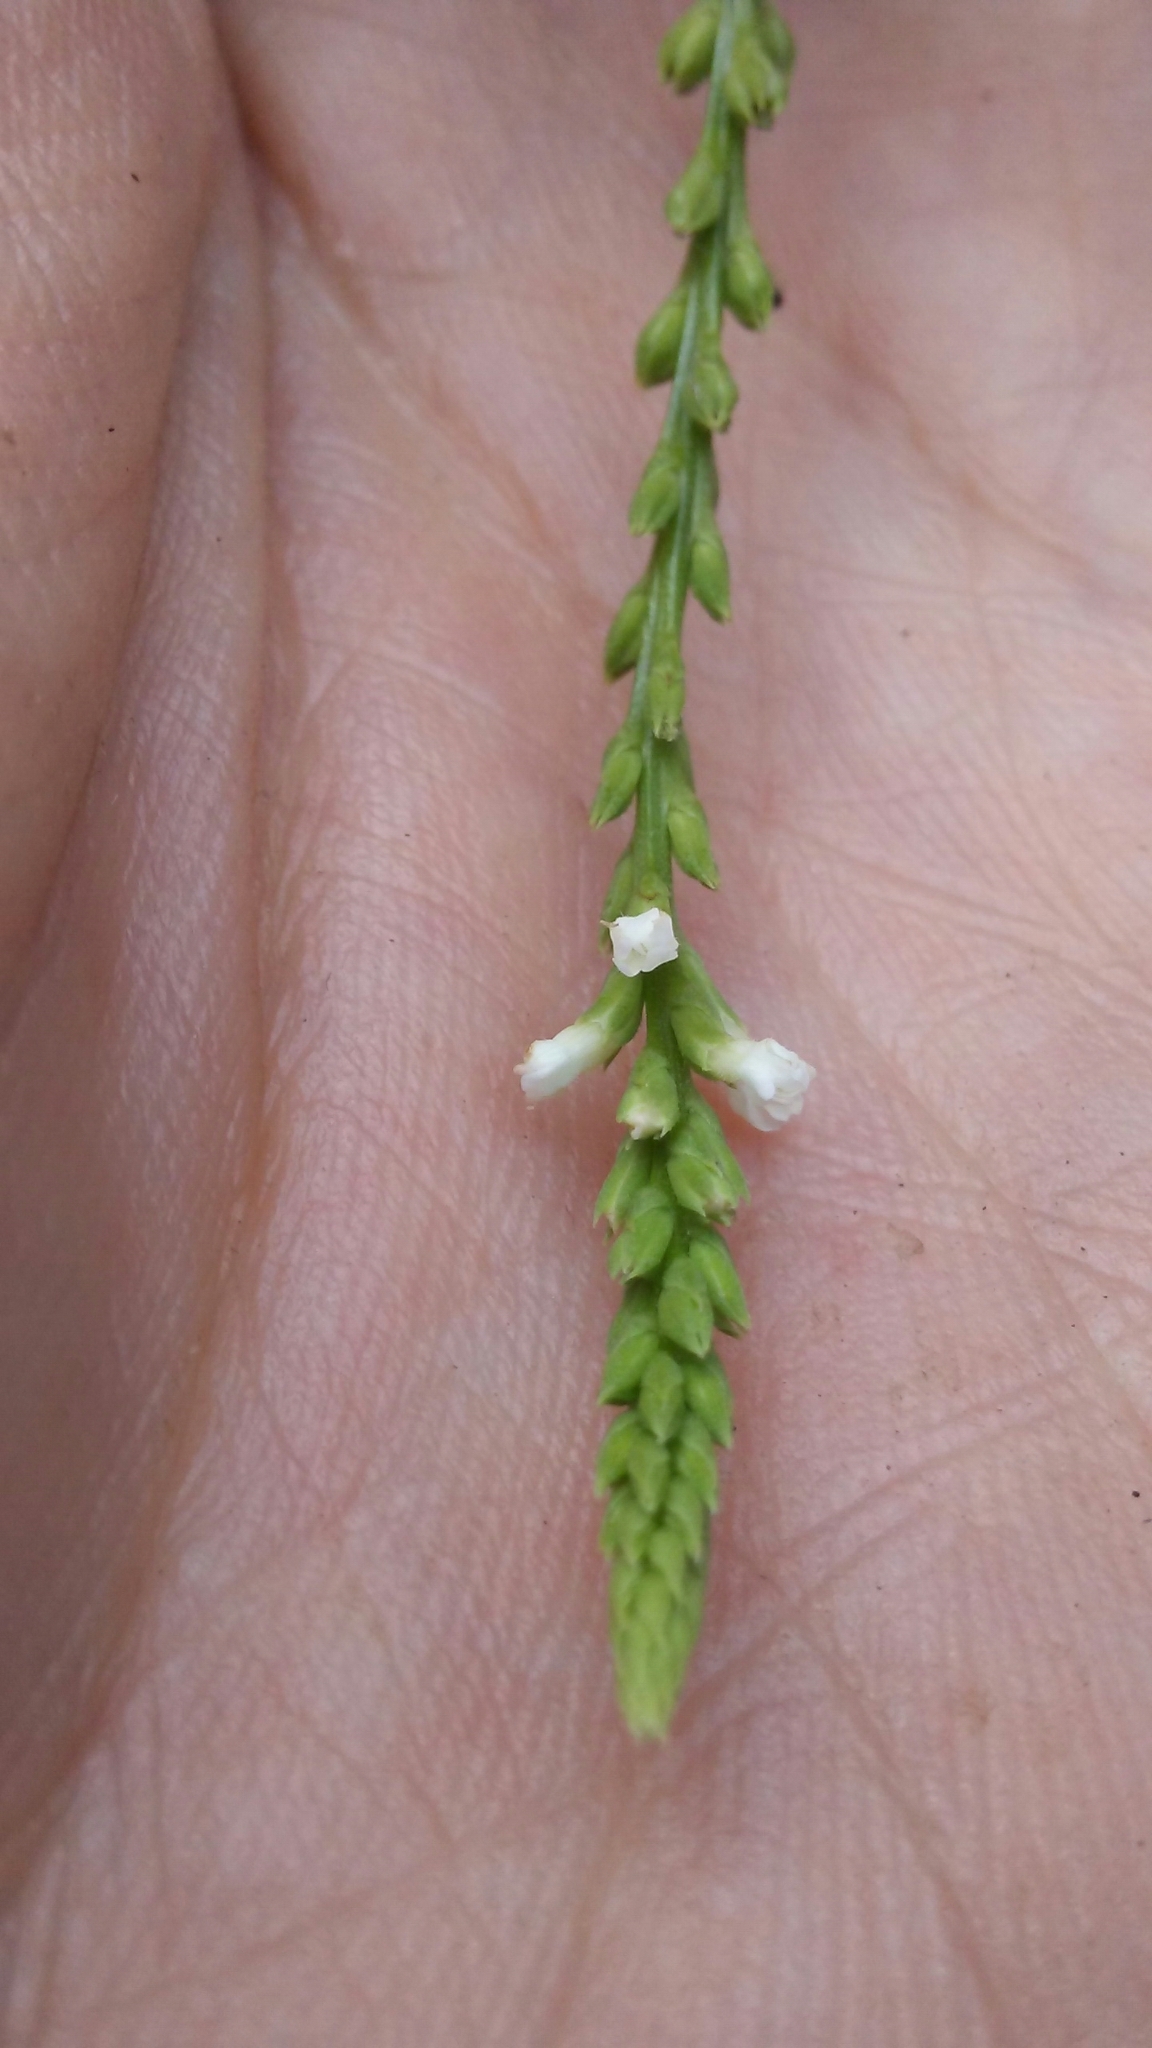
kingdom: Plantae
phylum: Tracheophyta
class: Magnoliopsida
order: Lamiales
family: Verbenaceae
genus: Verbena
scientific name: Verbena urticifolia
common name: Nettle-leaved vervain
